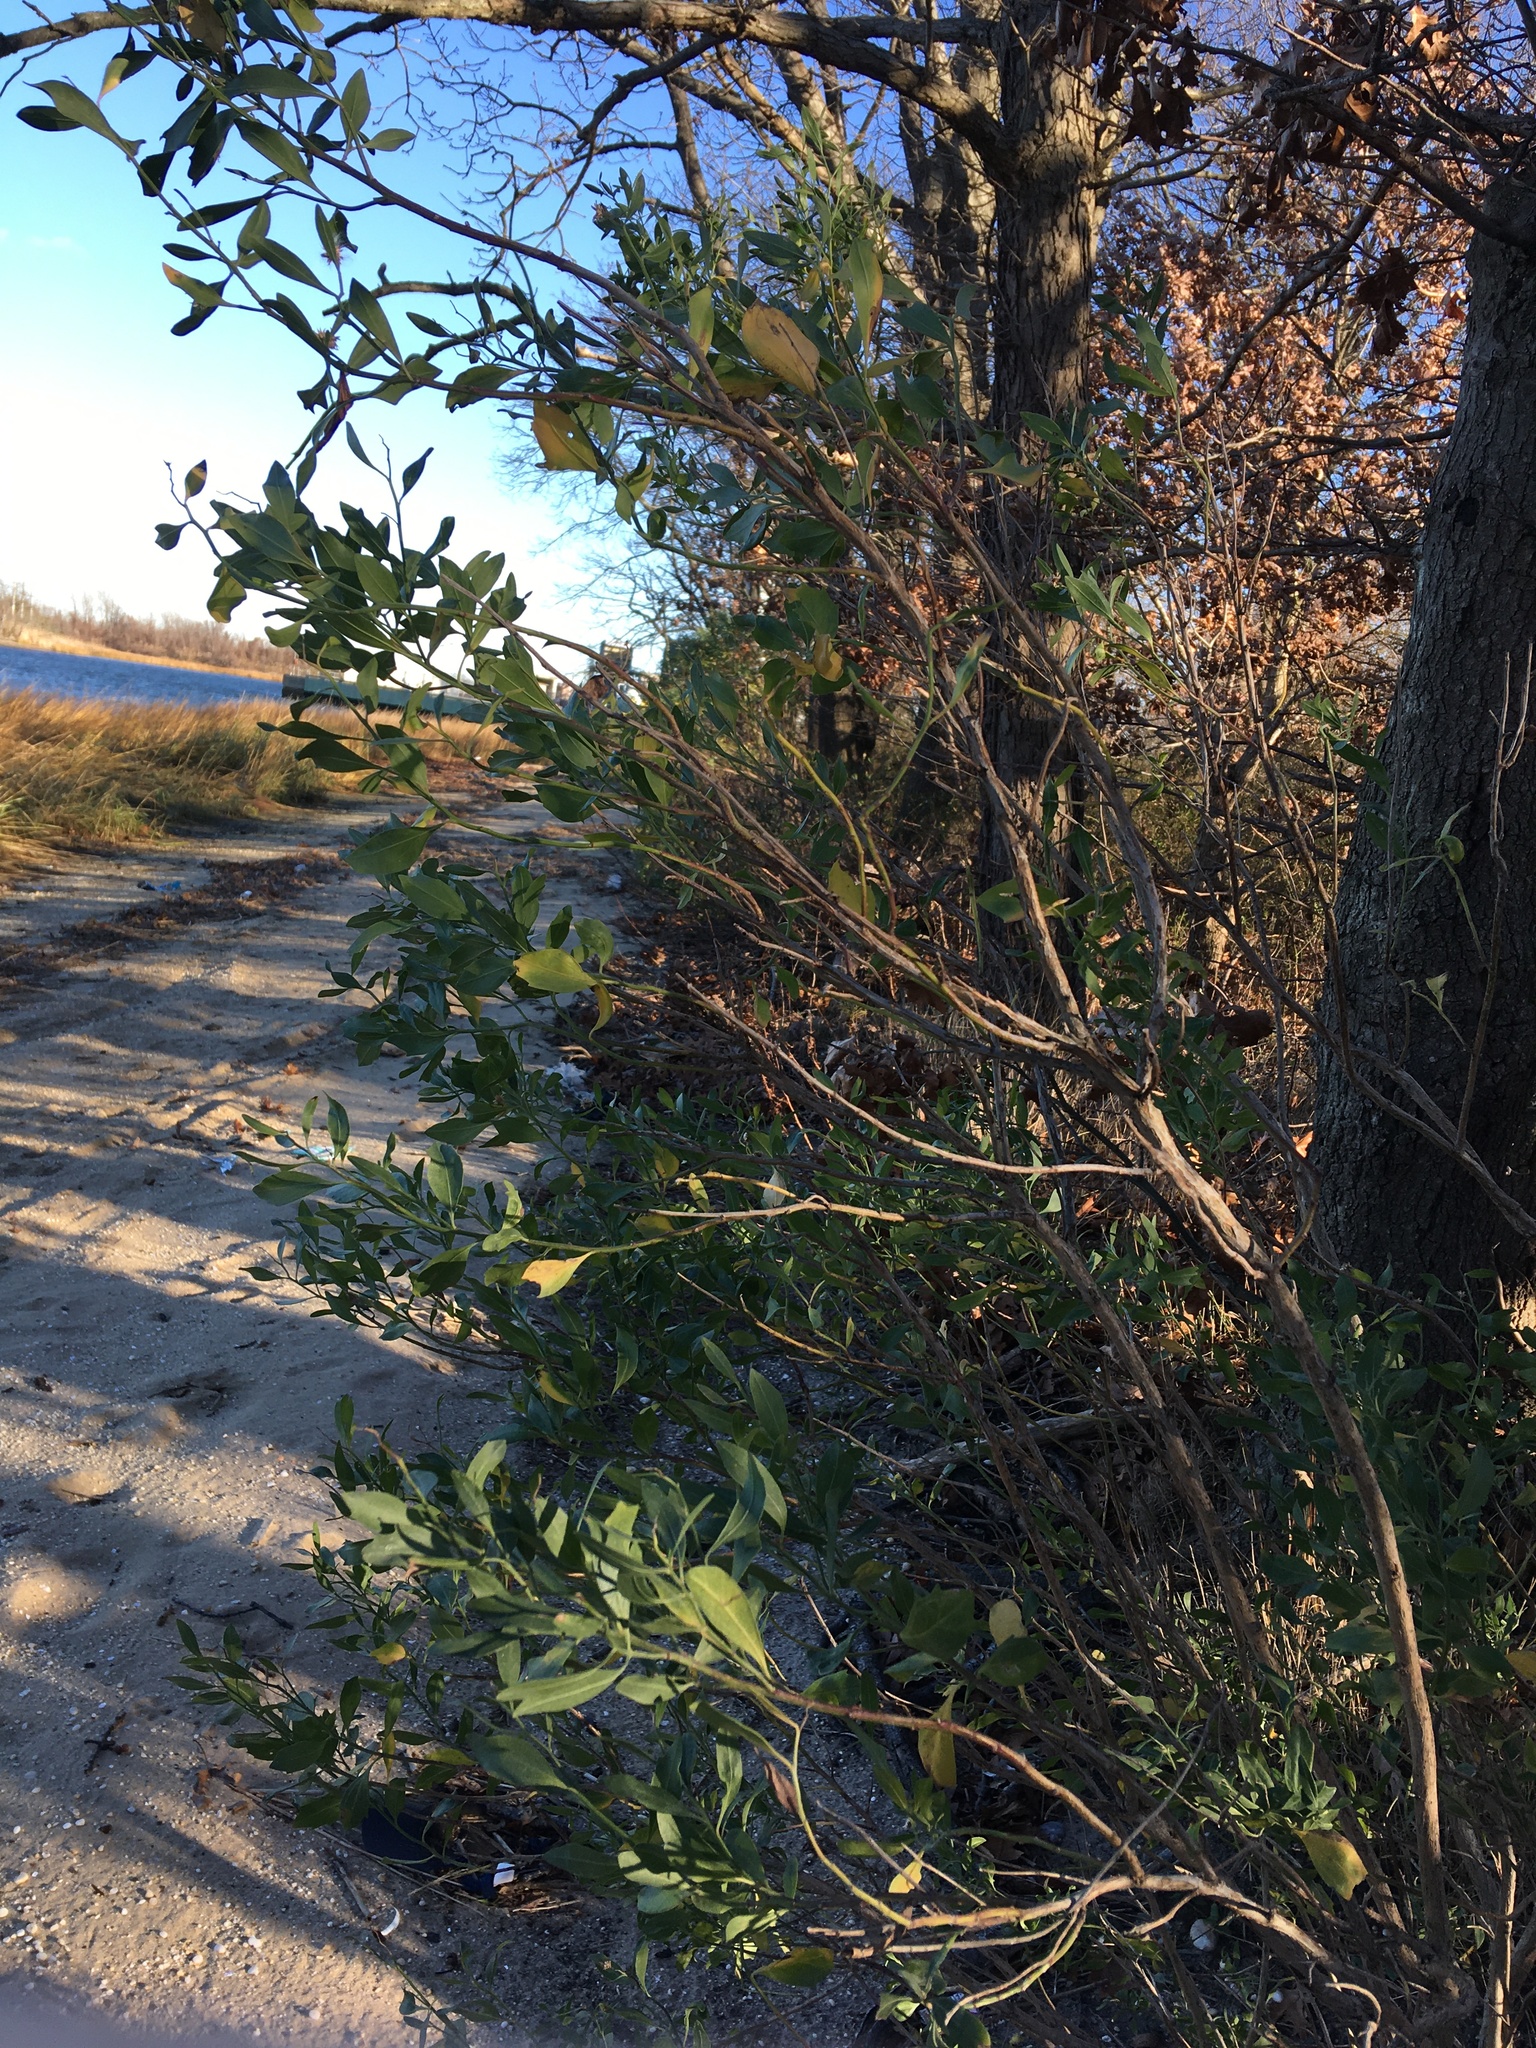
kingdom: Plantae
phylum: Tracheophyta
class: Magnoliopsida
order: Asterales
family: Asteraceae
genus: Baccharis
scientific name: Baccharis halimifolia
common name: Eastern baccharis
